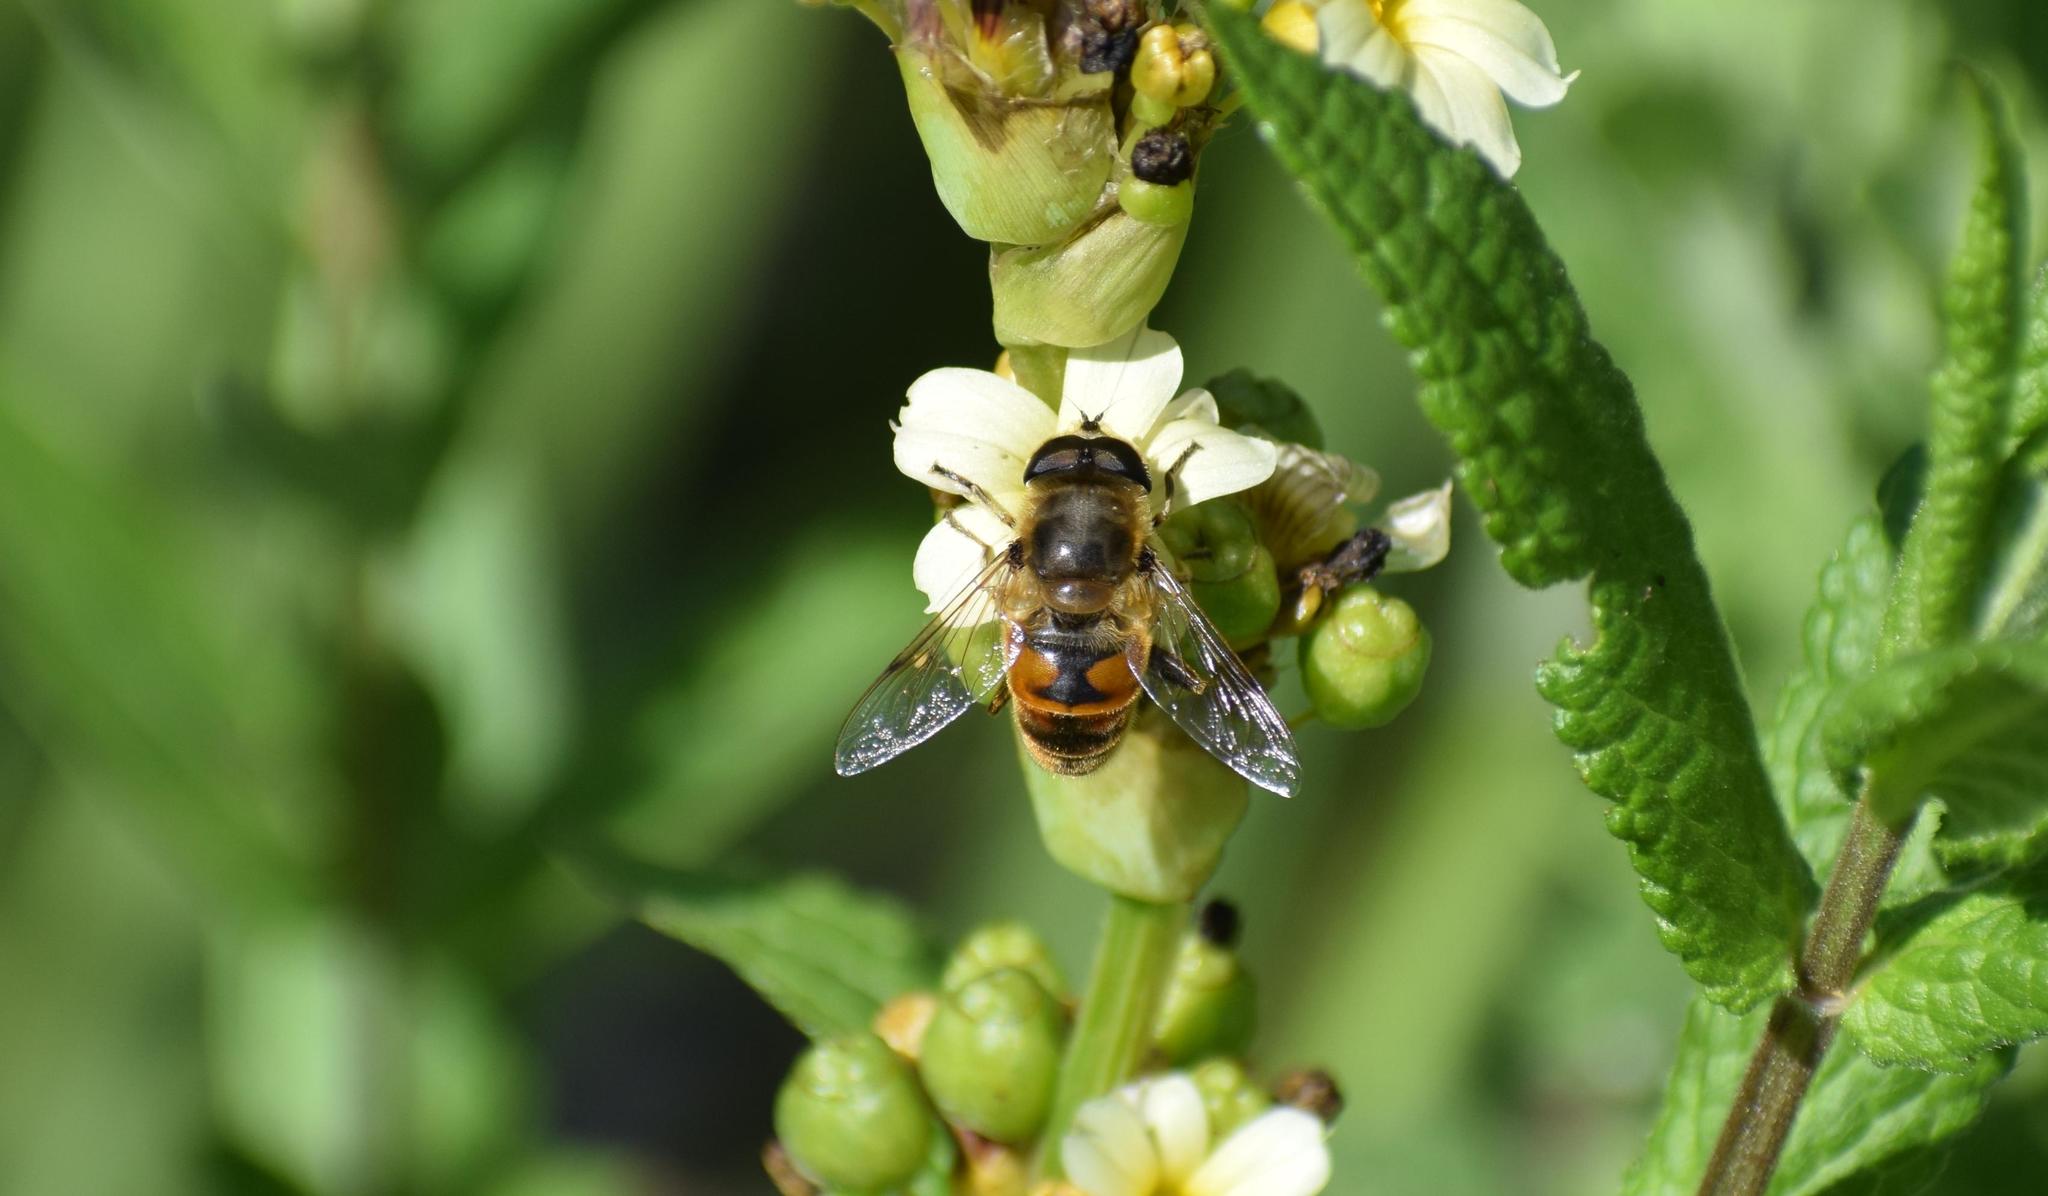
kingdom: Animalia
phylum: Arthropoda
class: Insecta
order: Diptera
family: Syrphidae
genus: Eristalis
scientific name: Eristalis tenax
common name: Drone fly
